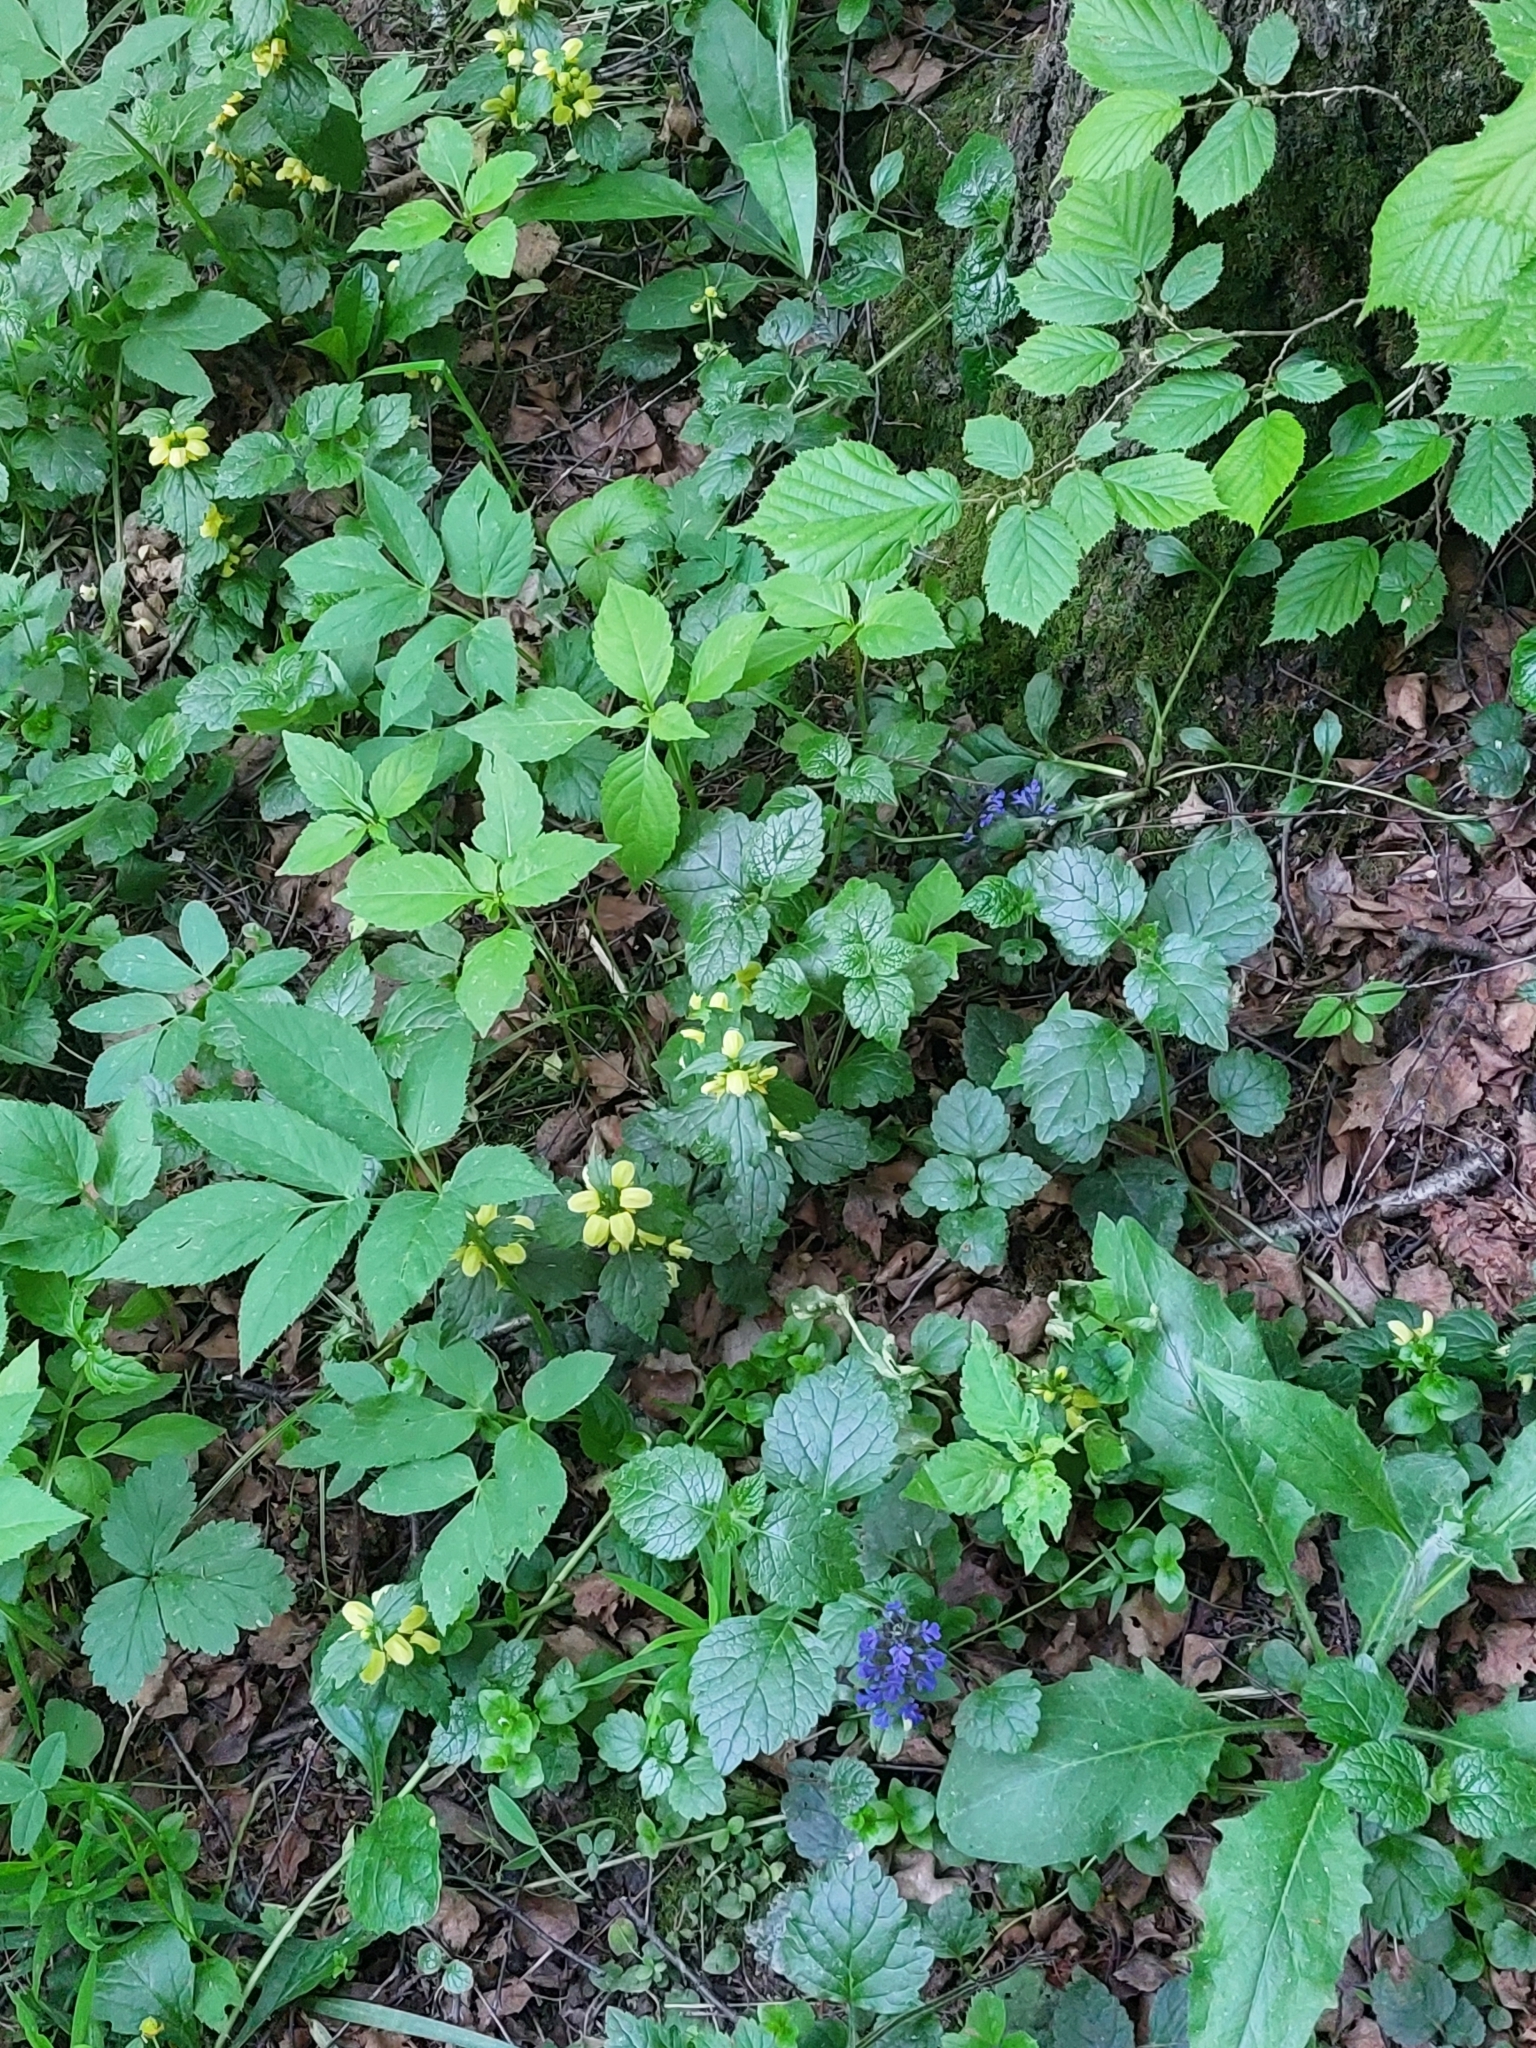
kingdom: Plantae
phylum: Tracheophyta
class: Magnoliopsida
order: Lamiales
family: Lamiaceae
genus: Lamium
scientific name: Lamium galeobdolon
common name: Yellow archangel
